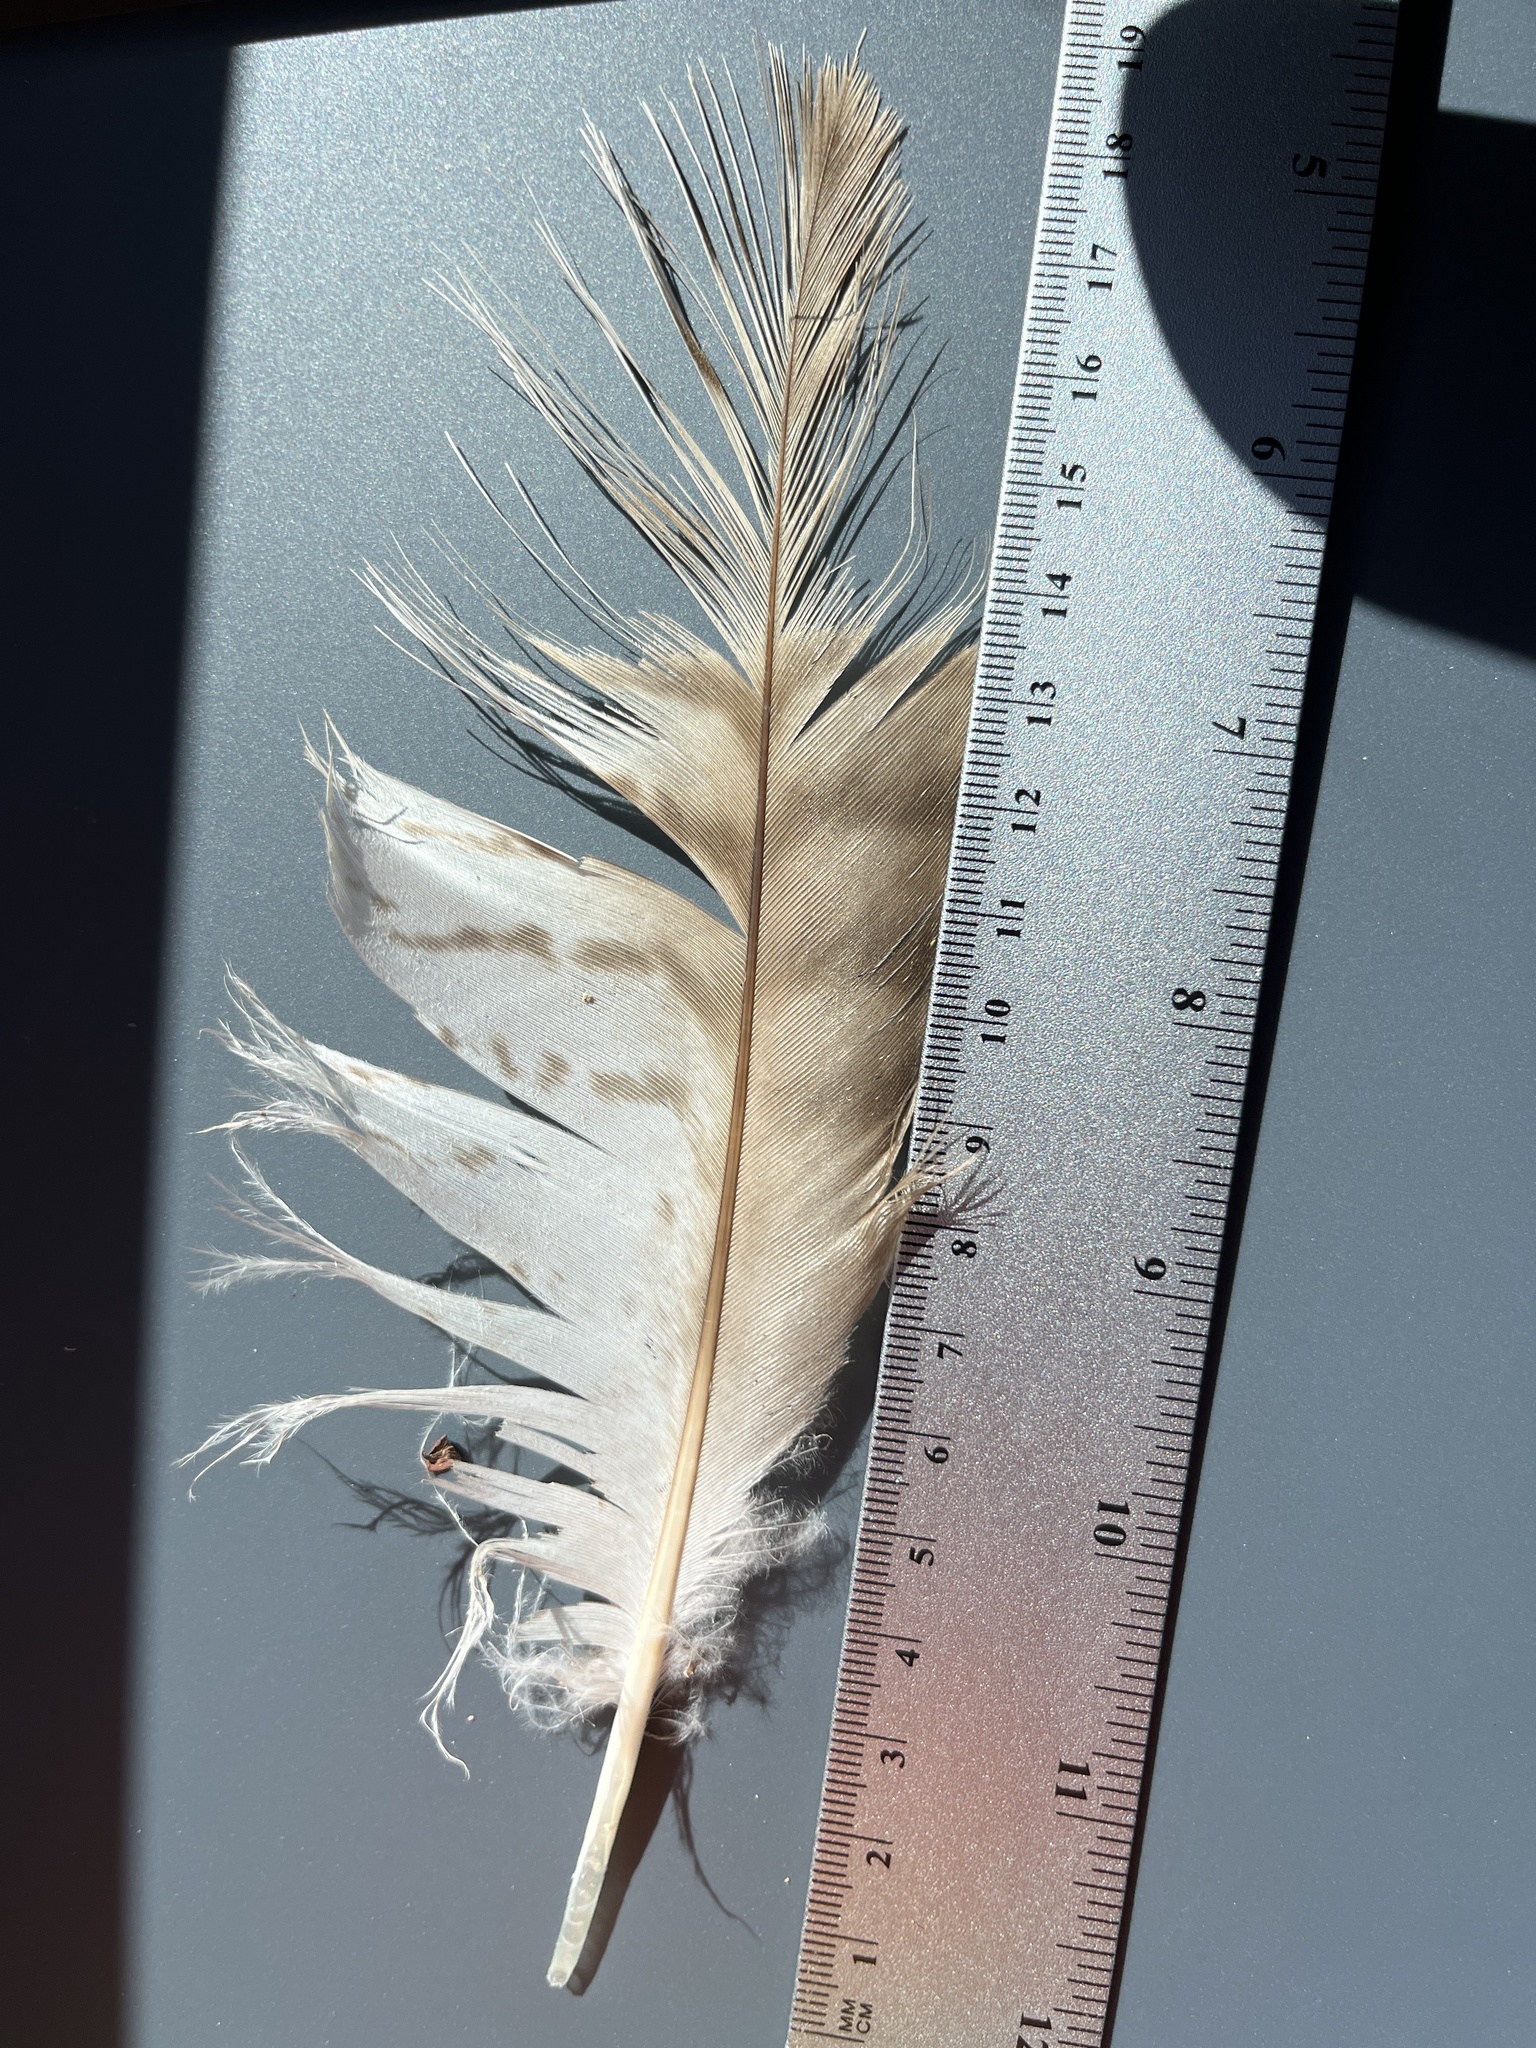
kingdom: Animalia
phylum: Chordata
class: Aves
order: Accipitriformes
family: Accipitridae
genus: Buteo
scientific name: Buteo jamaicensis
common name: Red-tailed hawk
